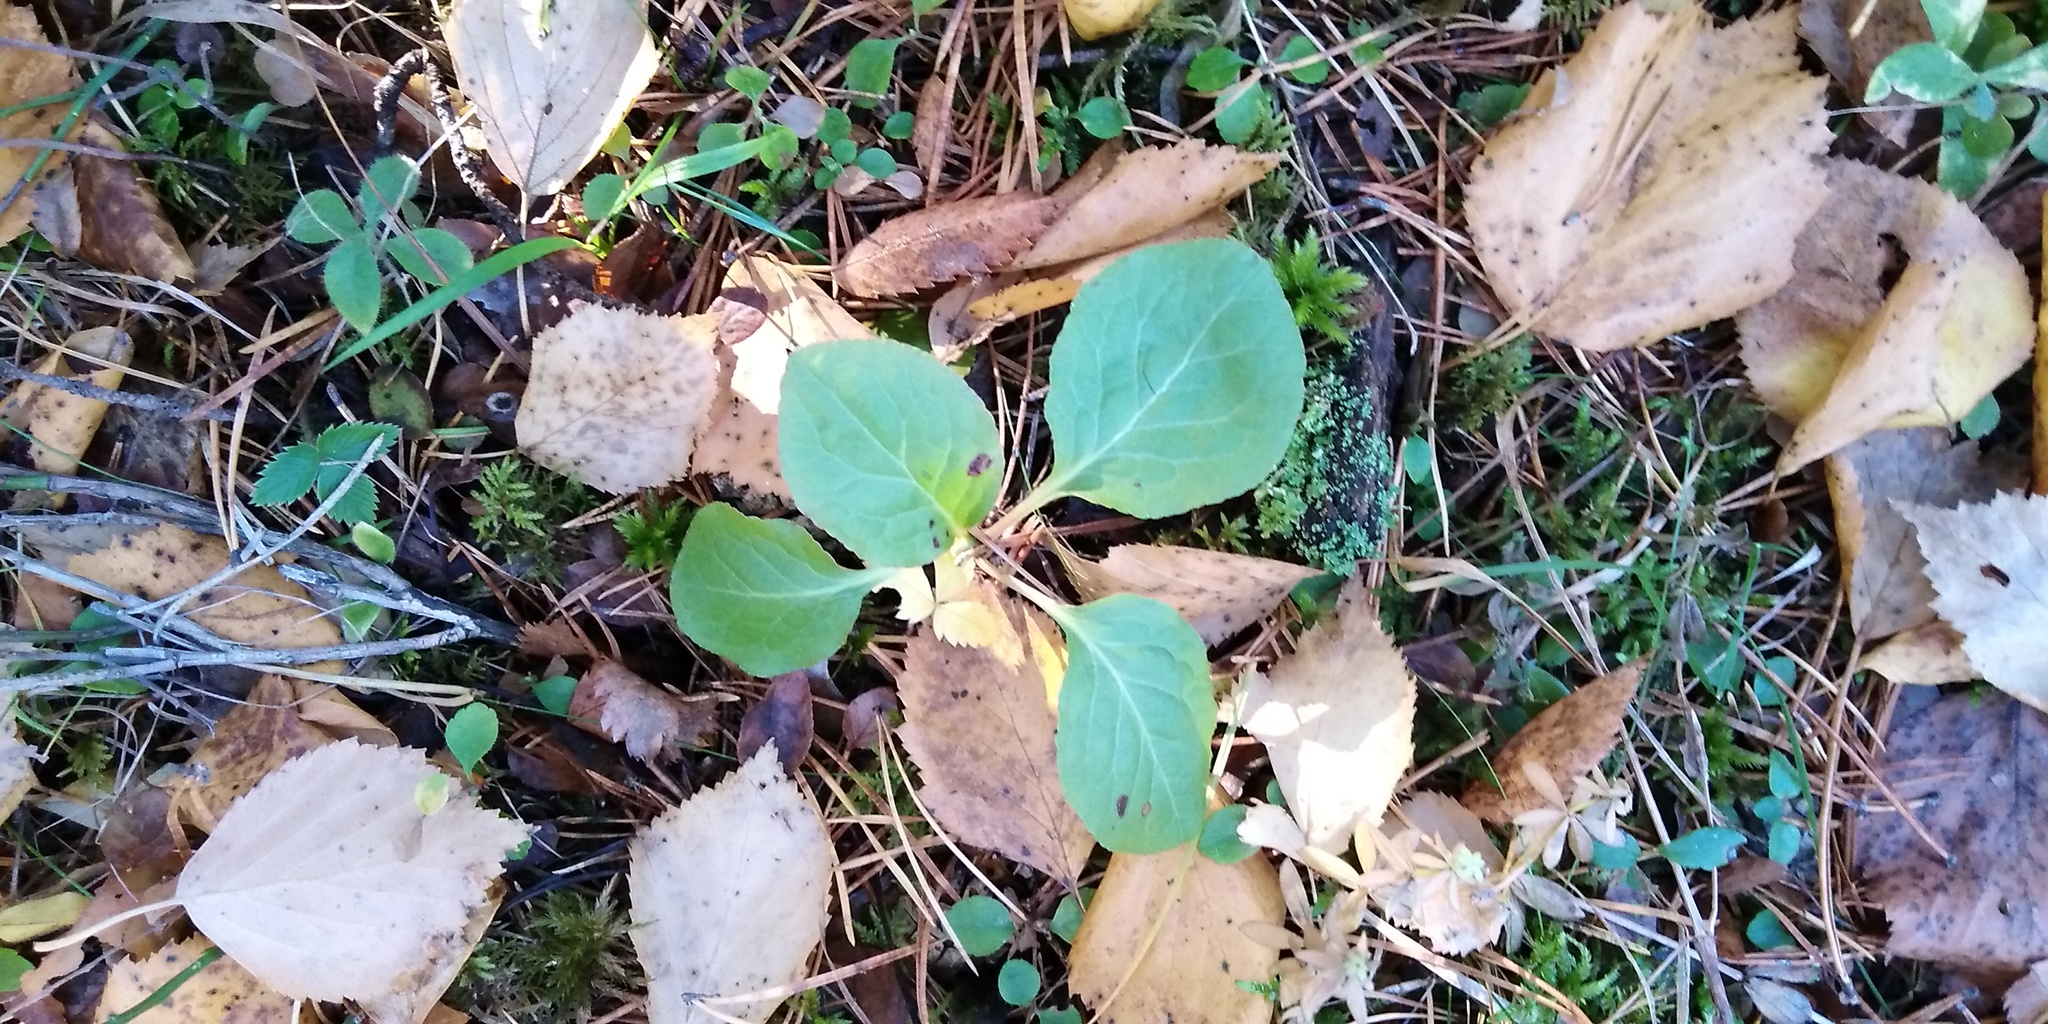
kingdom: Plantae
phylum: Tracheophyta
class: Magnoliopsida
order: Ericales
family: Ericaceae
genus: Pyrola
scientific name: Pyrola minor
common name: Common wintergreen
